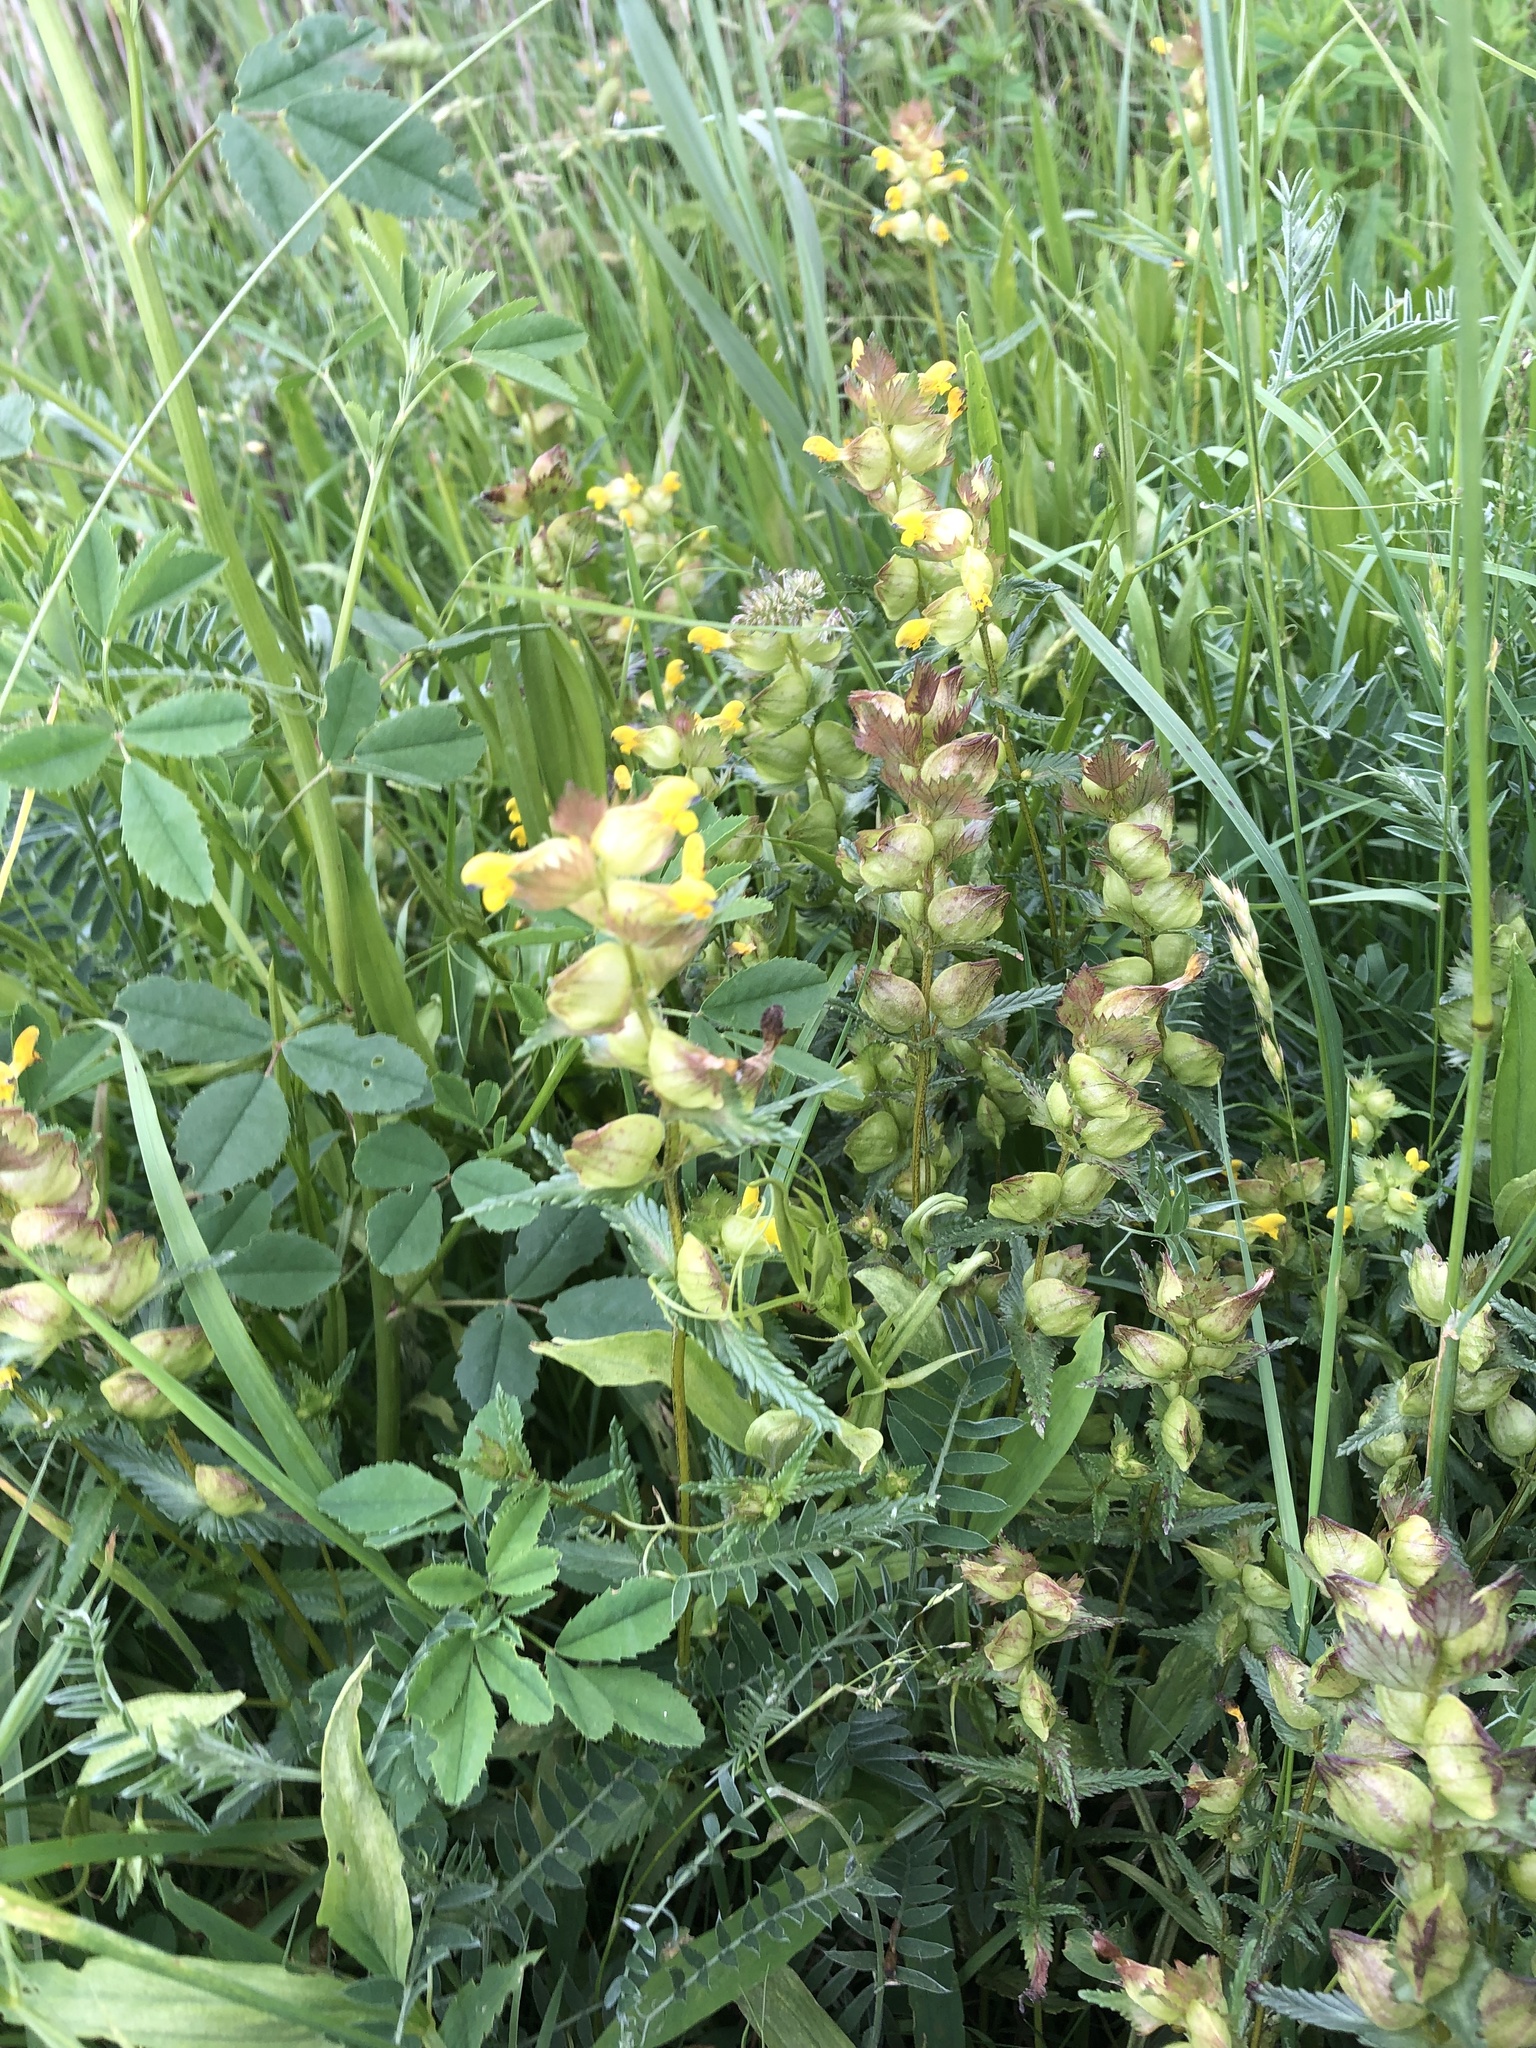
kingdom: Plantae
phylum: Tracheophyta
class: Magnoliopsida
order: Lamiales
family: Orobanchaceae
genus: Rhinanthus
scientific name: Rhinanthus minor
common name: Yellow-rattle
